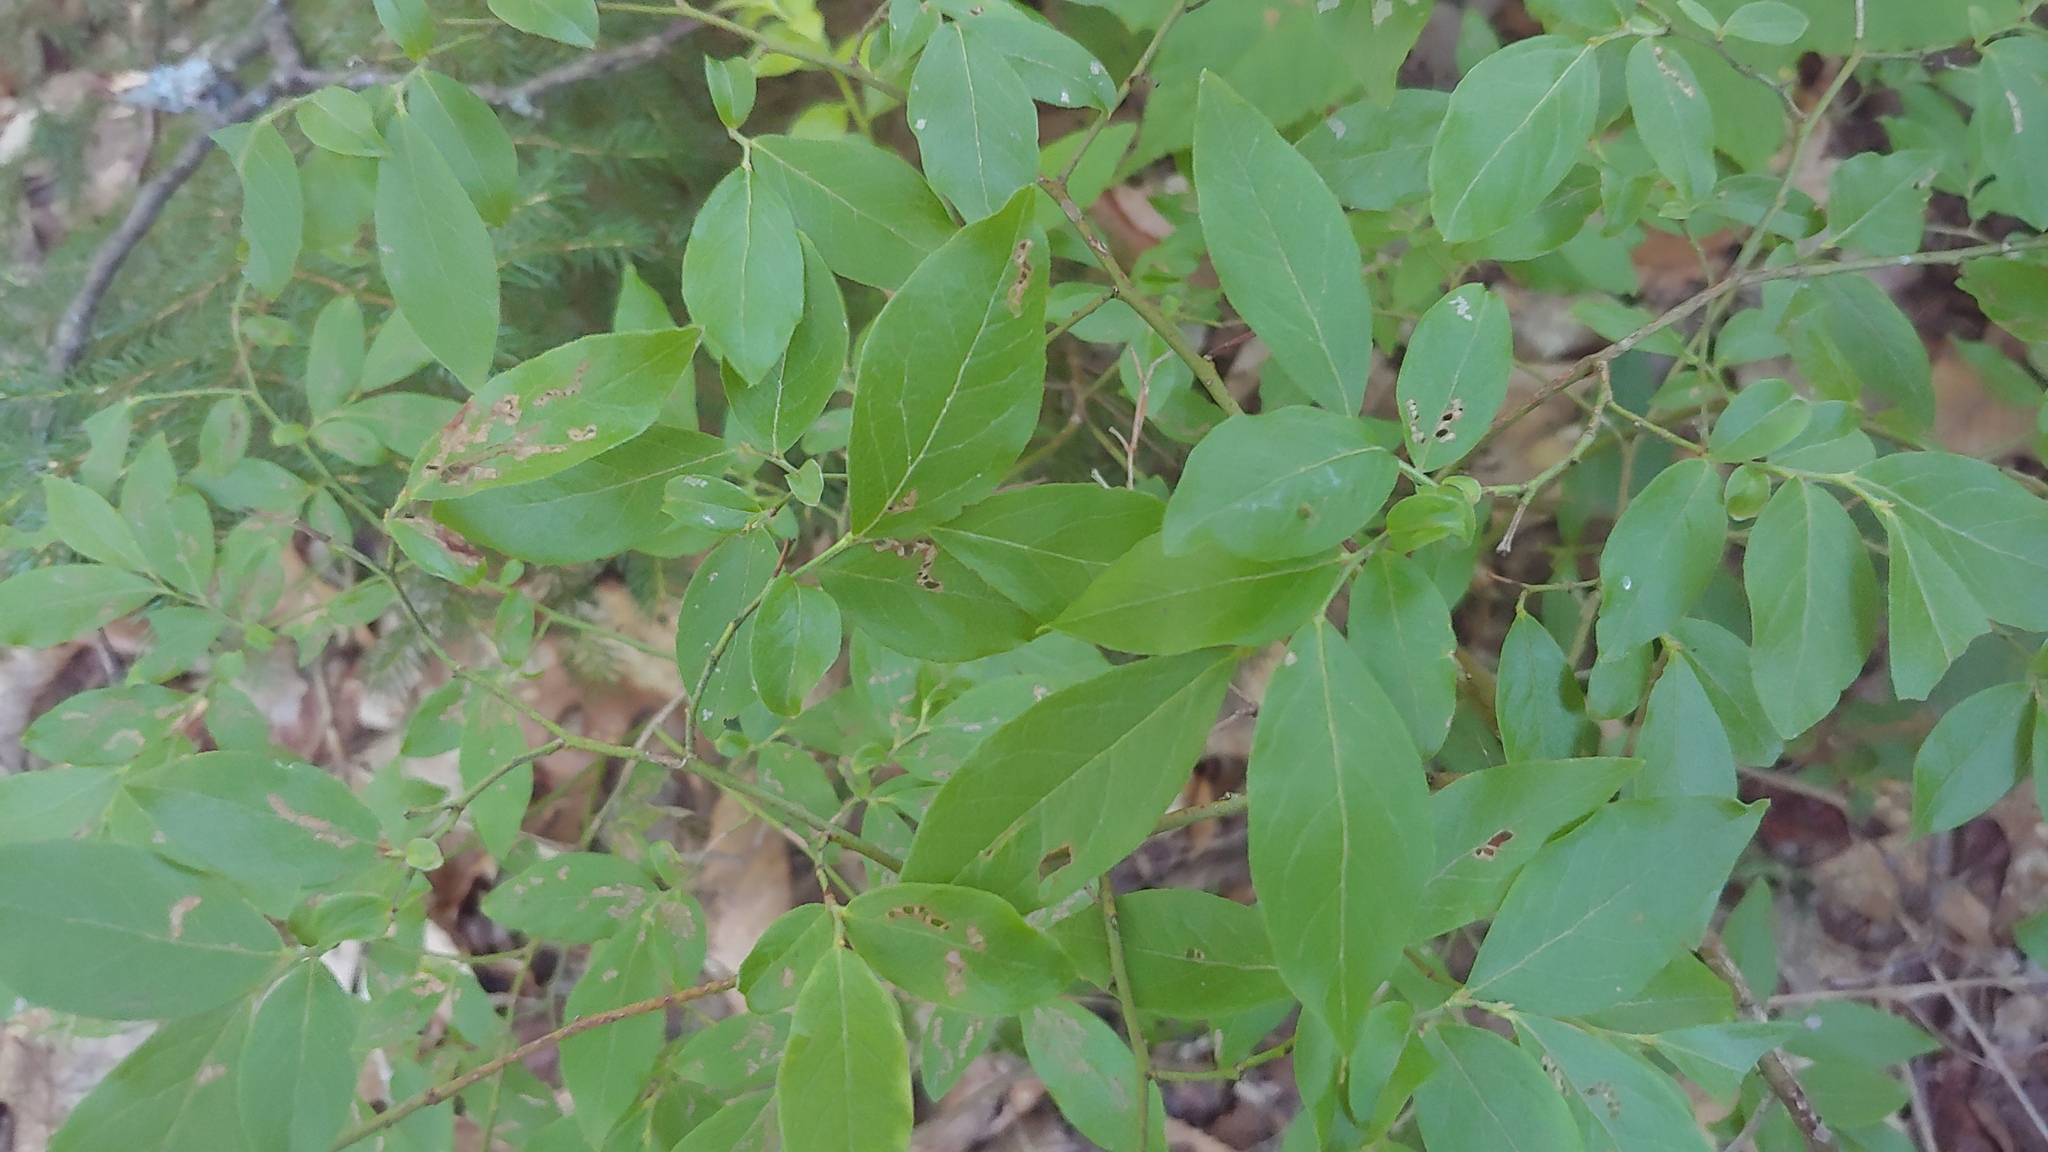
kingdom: Plantae
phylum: Tracheophyta
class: Magnoliopsida
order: Ericales
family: Ericaceae
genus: Vaccinium
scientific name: Vaccinium angustifolium
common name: Early lowbush blueberry
